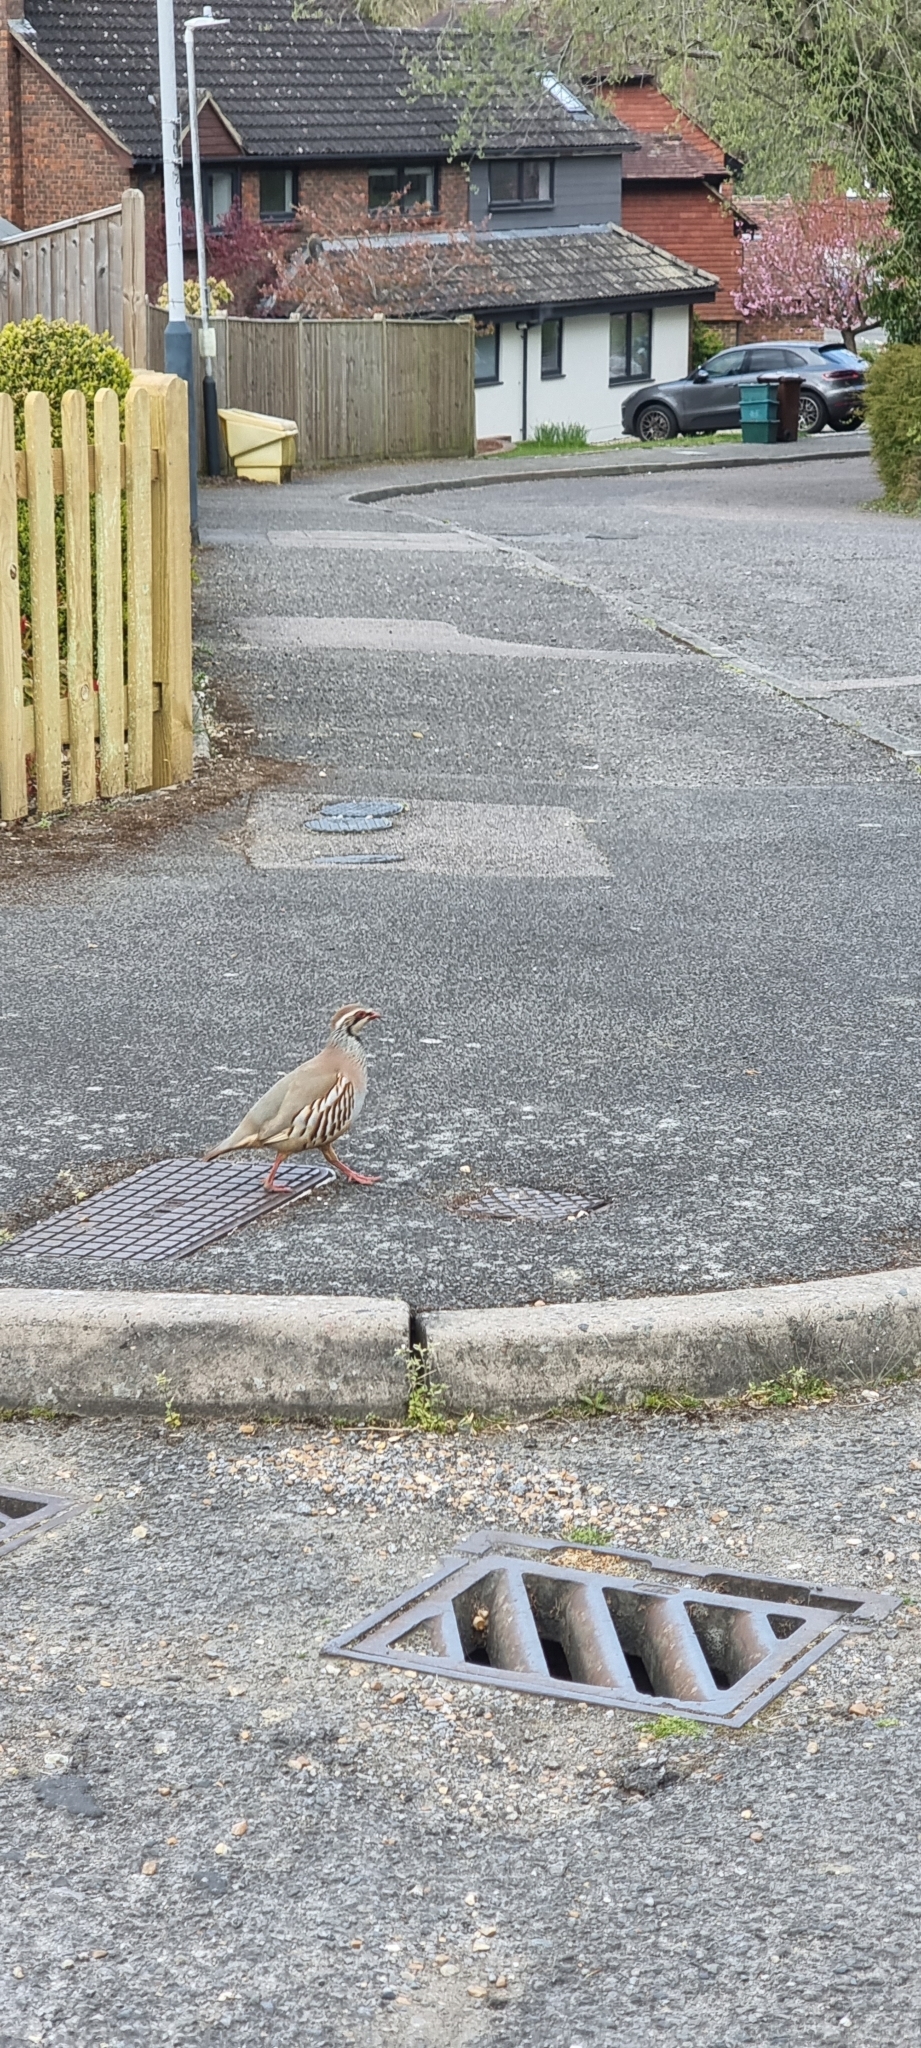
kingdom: Animalia
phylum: Chordata
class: Aves
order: Galliformes
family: Phasianidae
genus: Alectoris
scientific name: Alectoris rufa
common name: Red-legged partridge
